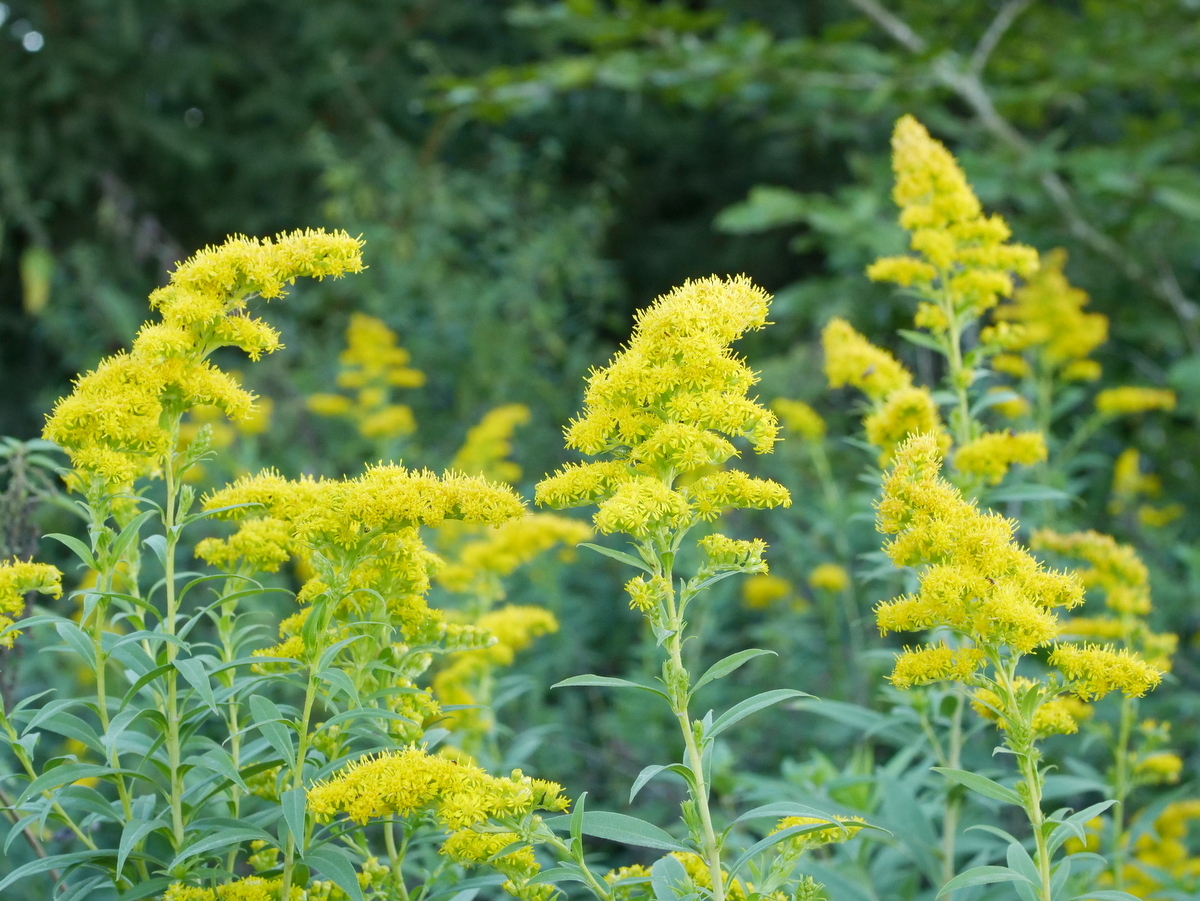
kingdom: Plantae
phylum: Tracheophyta
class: Magnoliopsida
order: Asterales
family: Asteraceae
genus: Solidago
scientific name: Solidago gigantea
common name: Giant goldenrod
